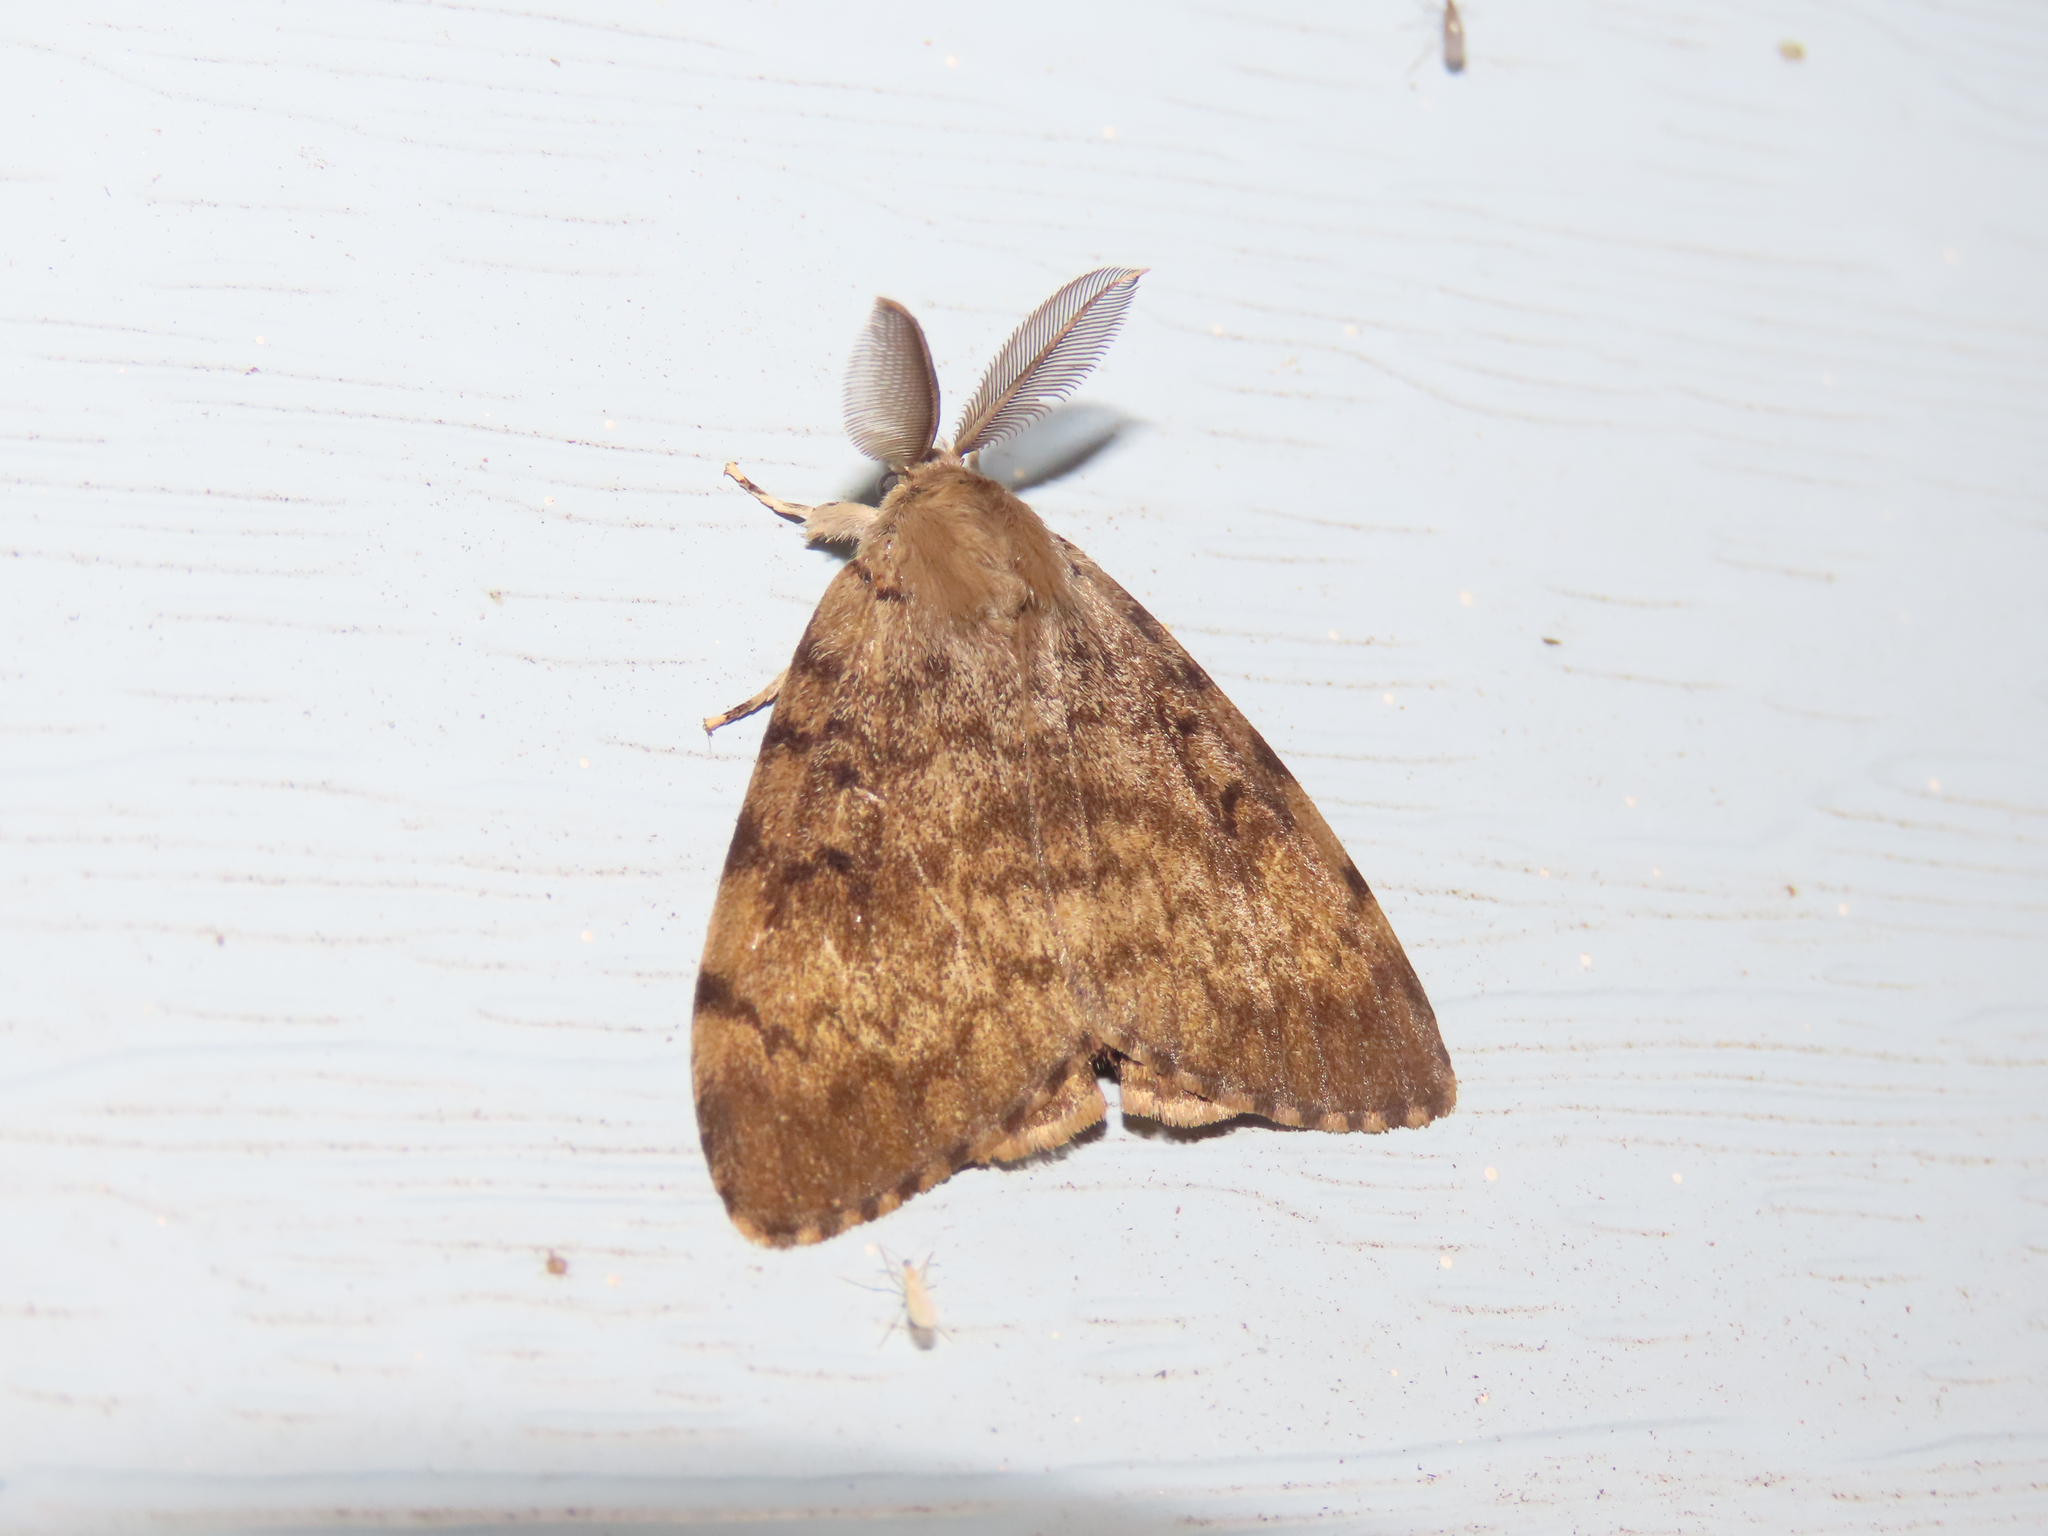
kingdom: Animalia
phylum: Arthropoda
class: Insecta
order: Lepidoptera
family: Erebidae
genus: Lymantria
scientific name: Lymantria dispar
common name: Gypsy moth
